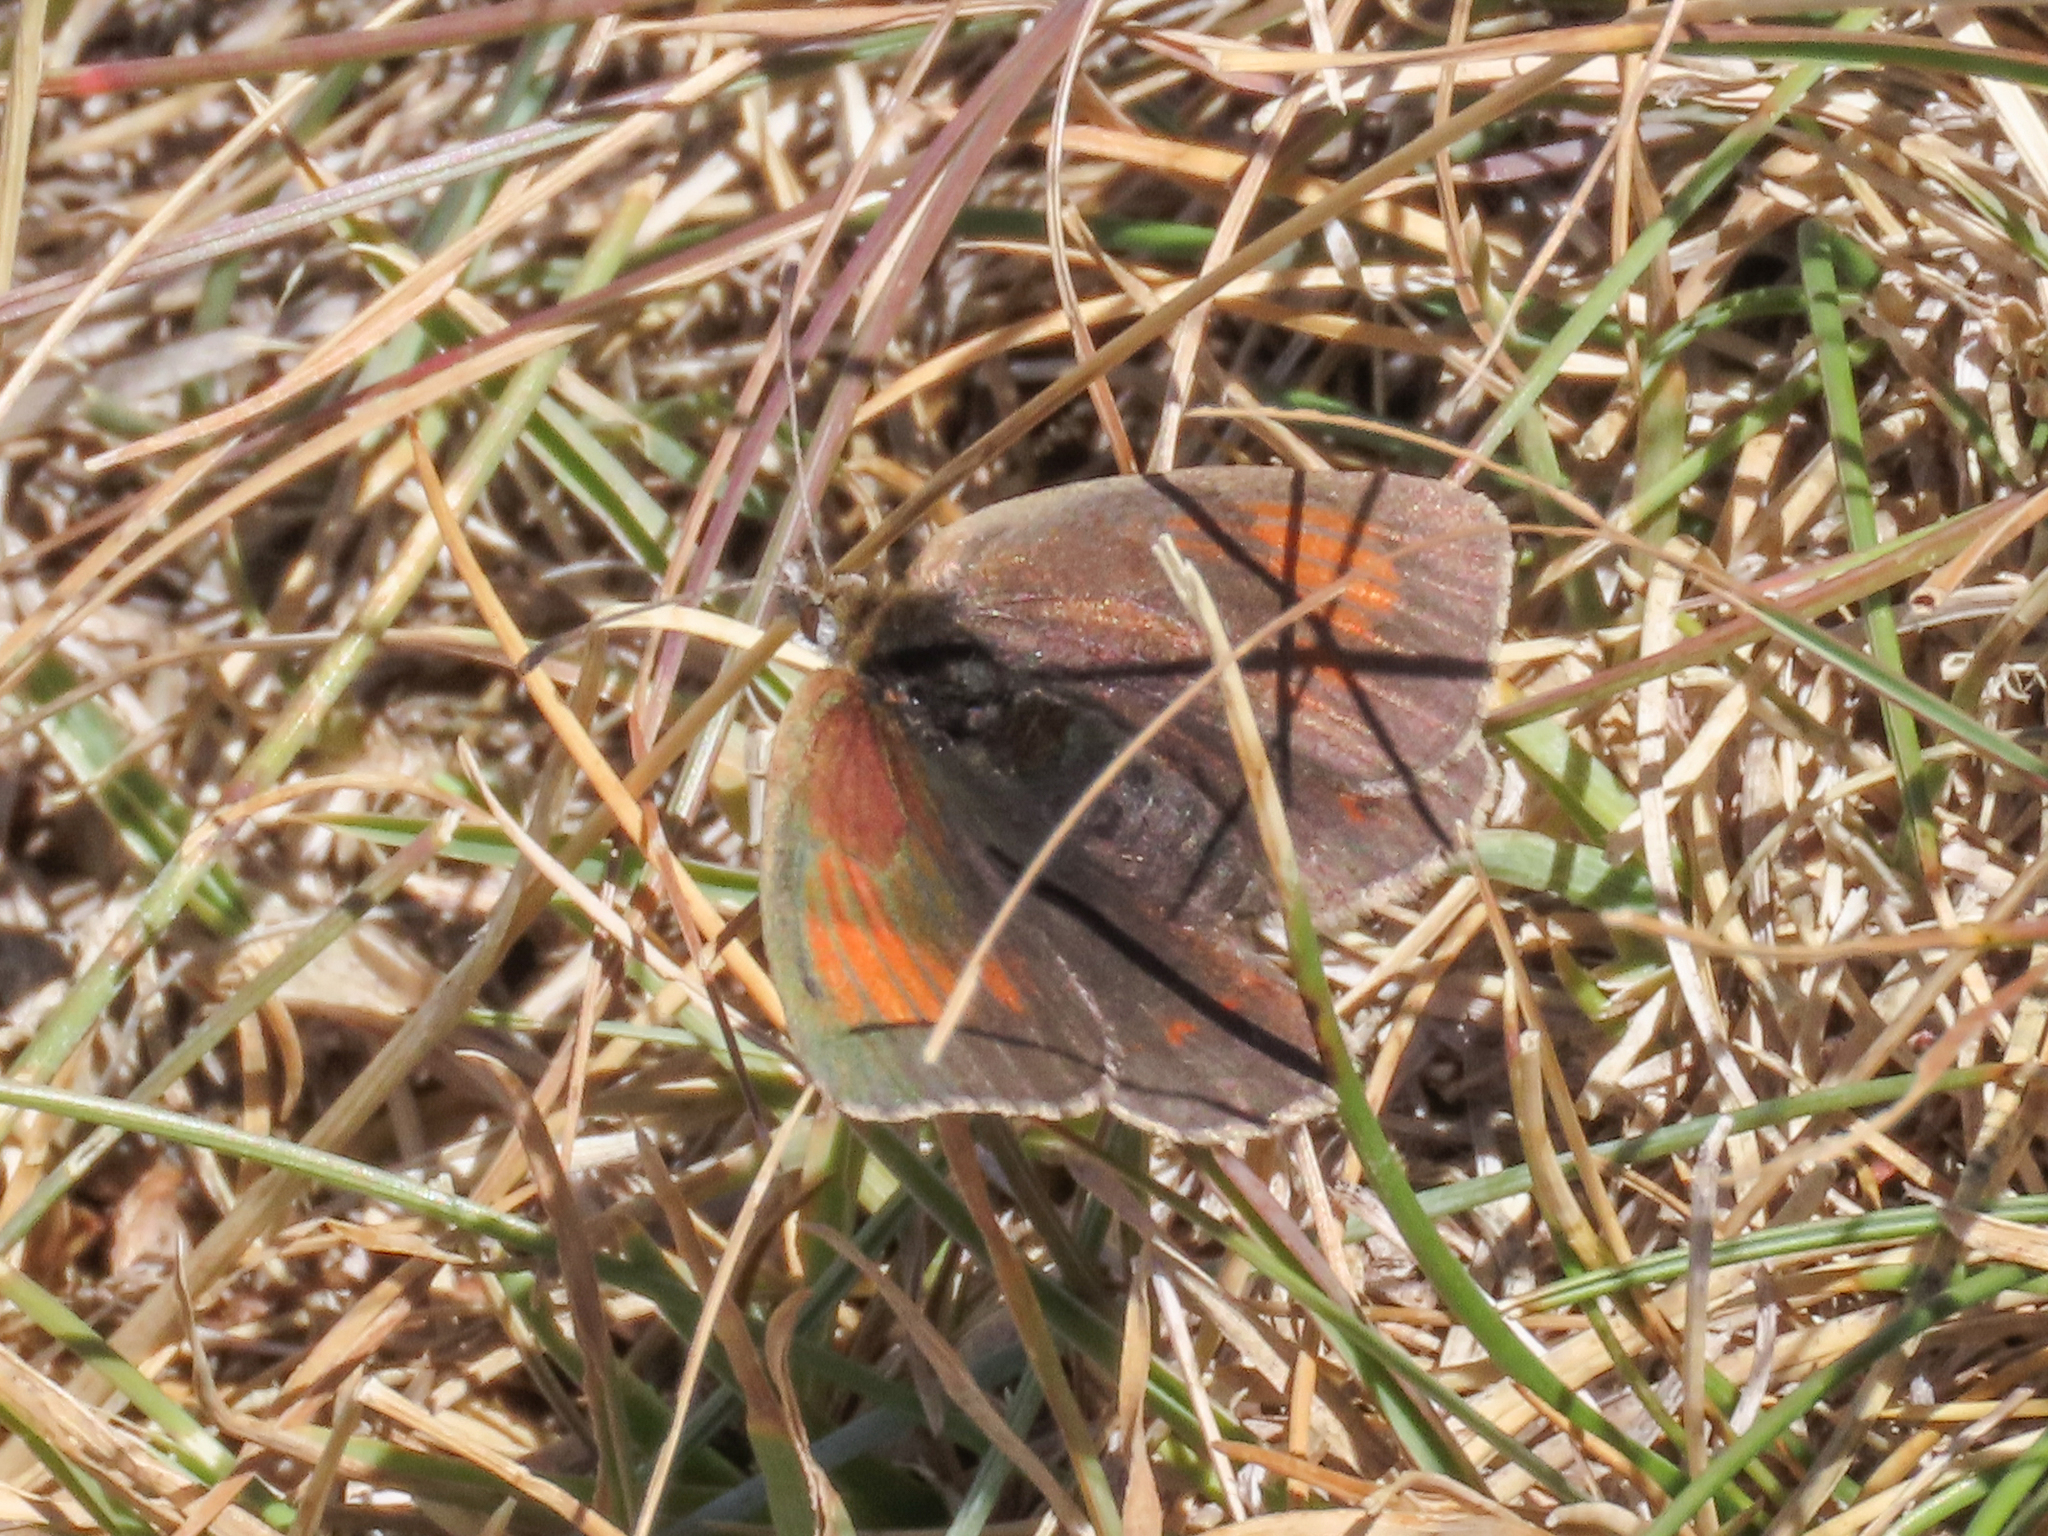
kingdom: Animalia
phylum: Arthropoda
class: Insecta
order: Lepidoptera
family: Nymphalidae
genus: Erebia
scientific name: Erebia cassioides
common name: Common brassy ringlet
